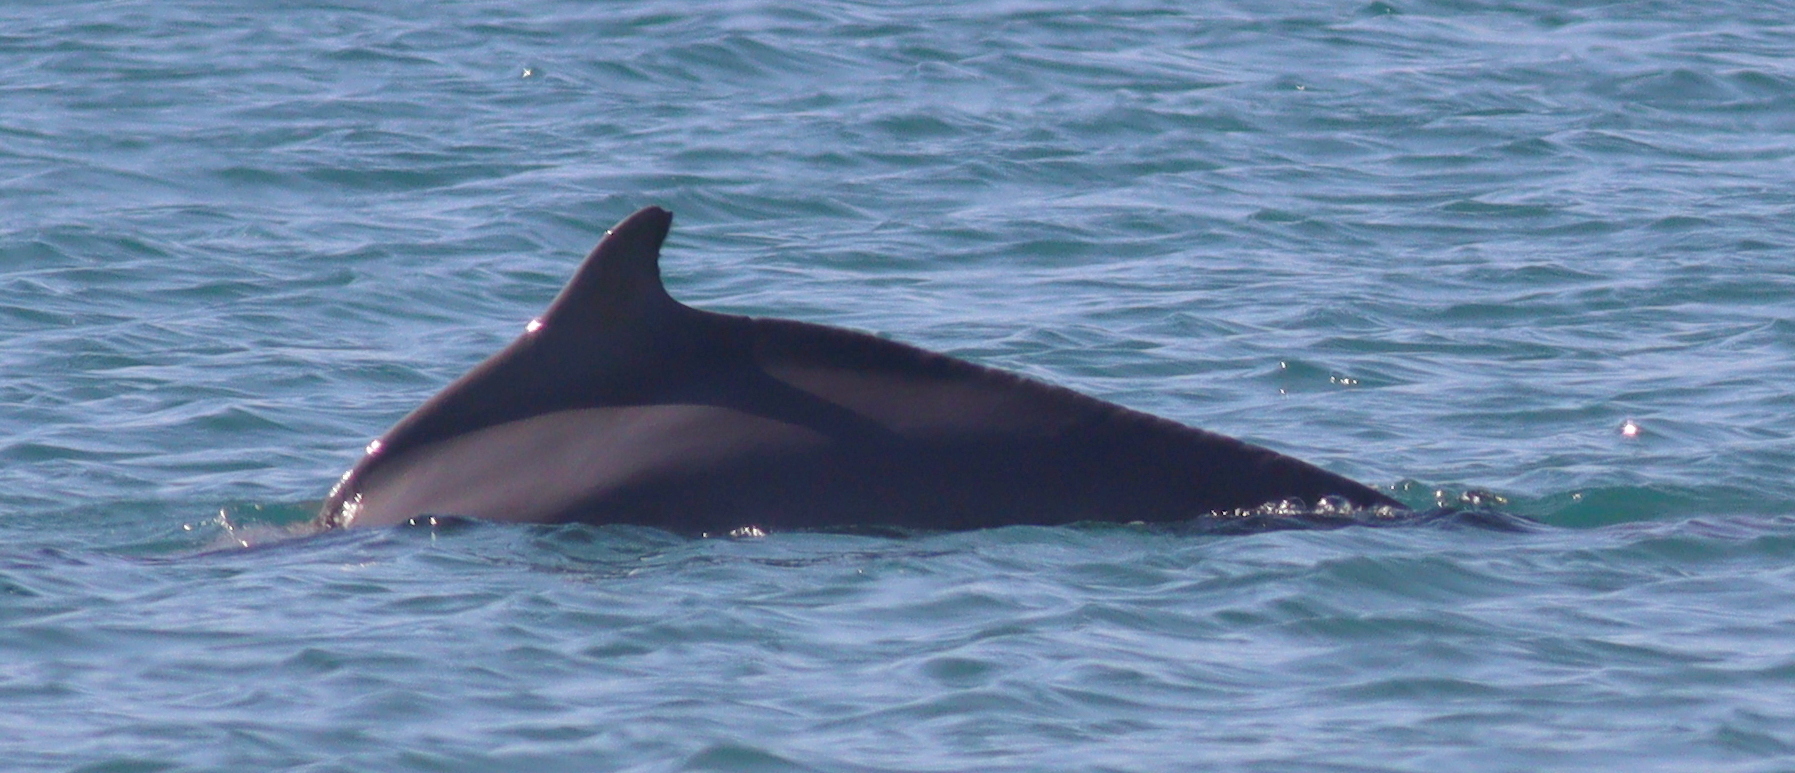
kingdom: Animalia
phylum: Chordata
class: Mammalia
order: Cetacea
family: Delphinidae
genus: Sousa
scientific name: Sousa plumbea
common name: Indian ocean humpback dolphin
